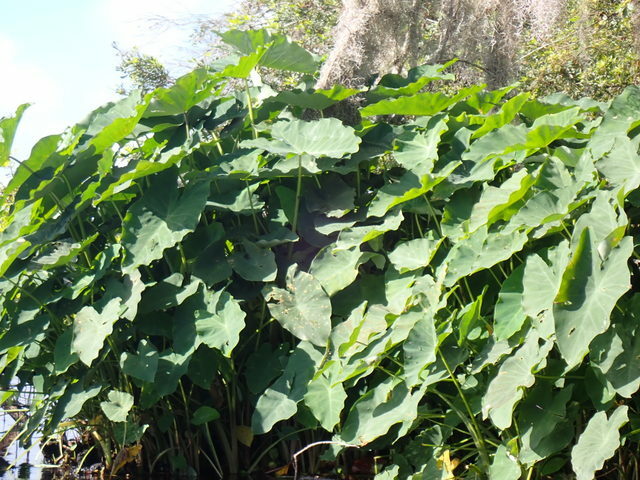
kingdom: Plantae
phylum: Tracheophyta
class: Liliopsida
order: Alismatales
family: Araceae
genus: Colocasia
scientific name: Colocasia esculenta
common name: Taro
